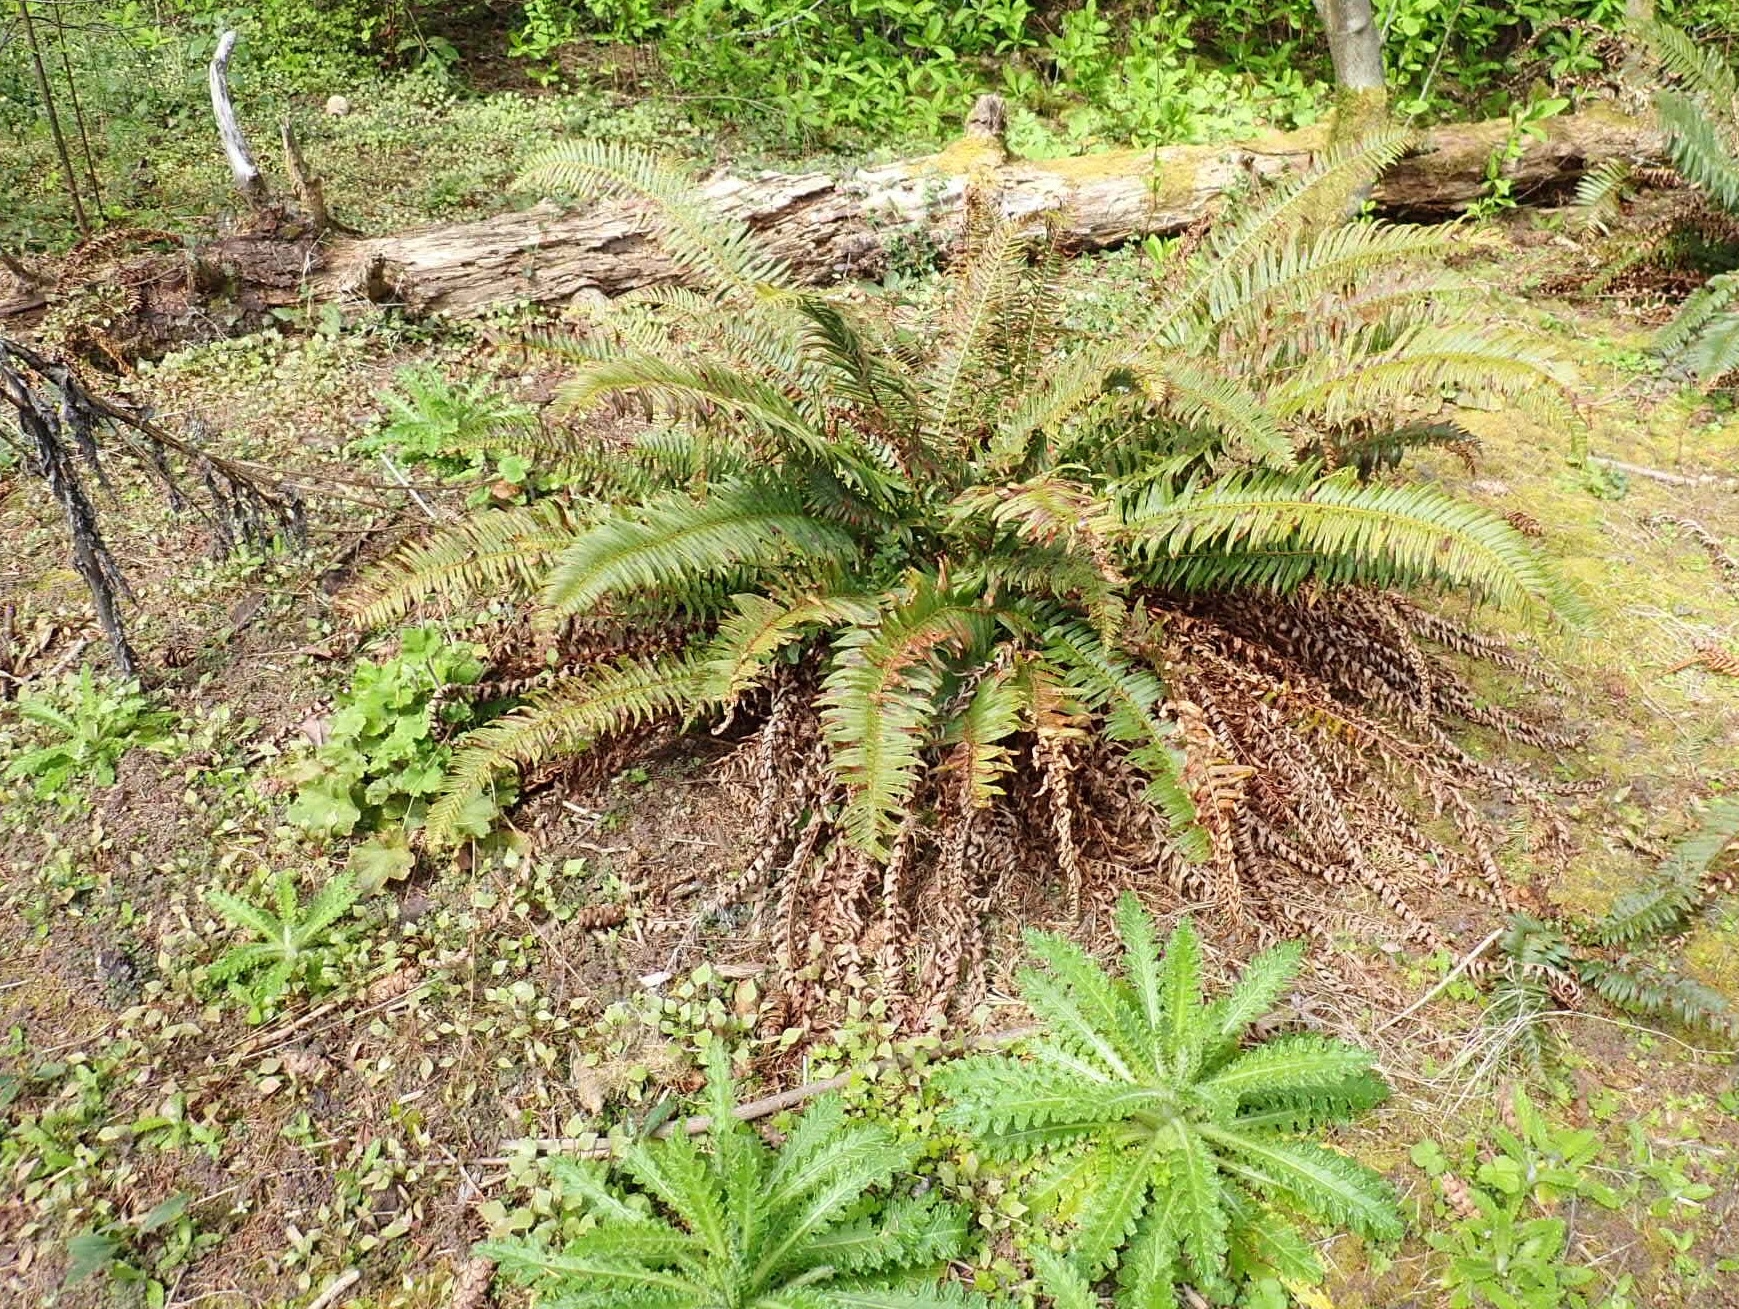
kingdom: Plantae
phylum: Tracheophyta
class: Magnoliopsida
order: Asterales
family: Asteraceae
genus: Cirsium
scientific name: Cirsium brevistylum
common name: Indian thistle
